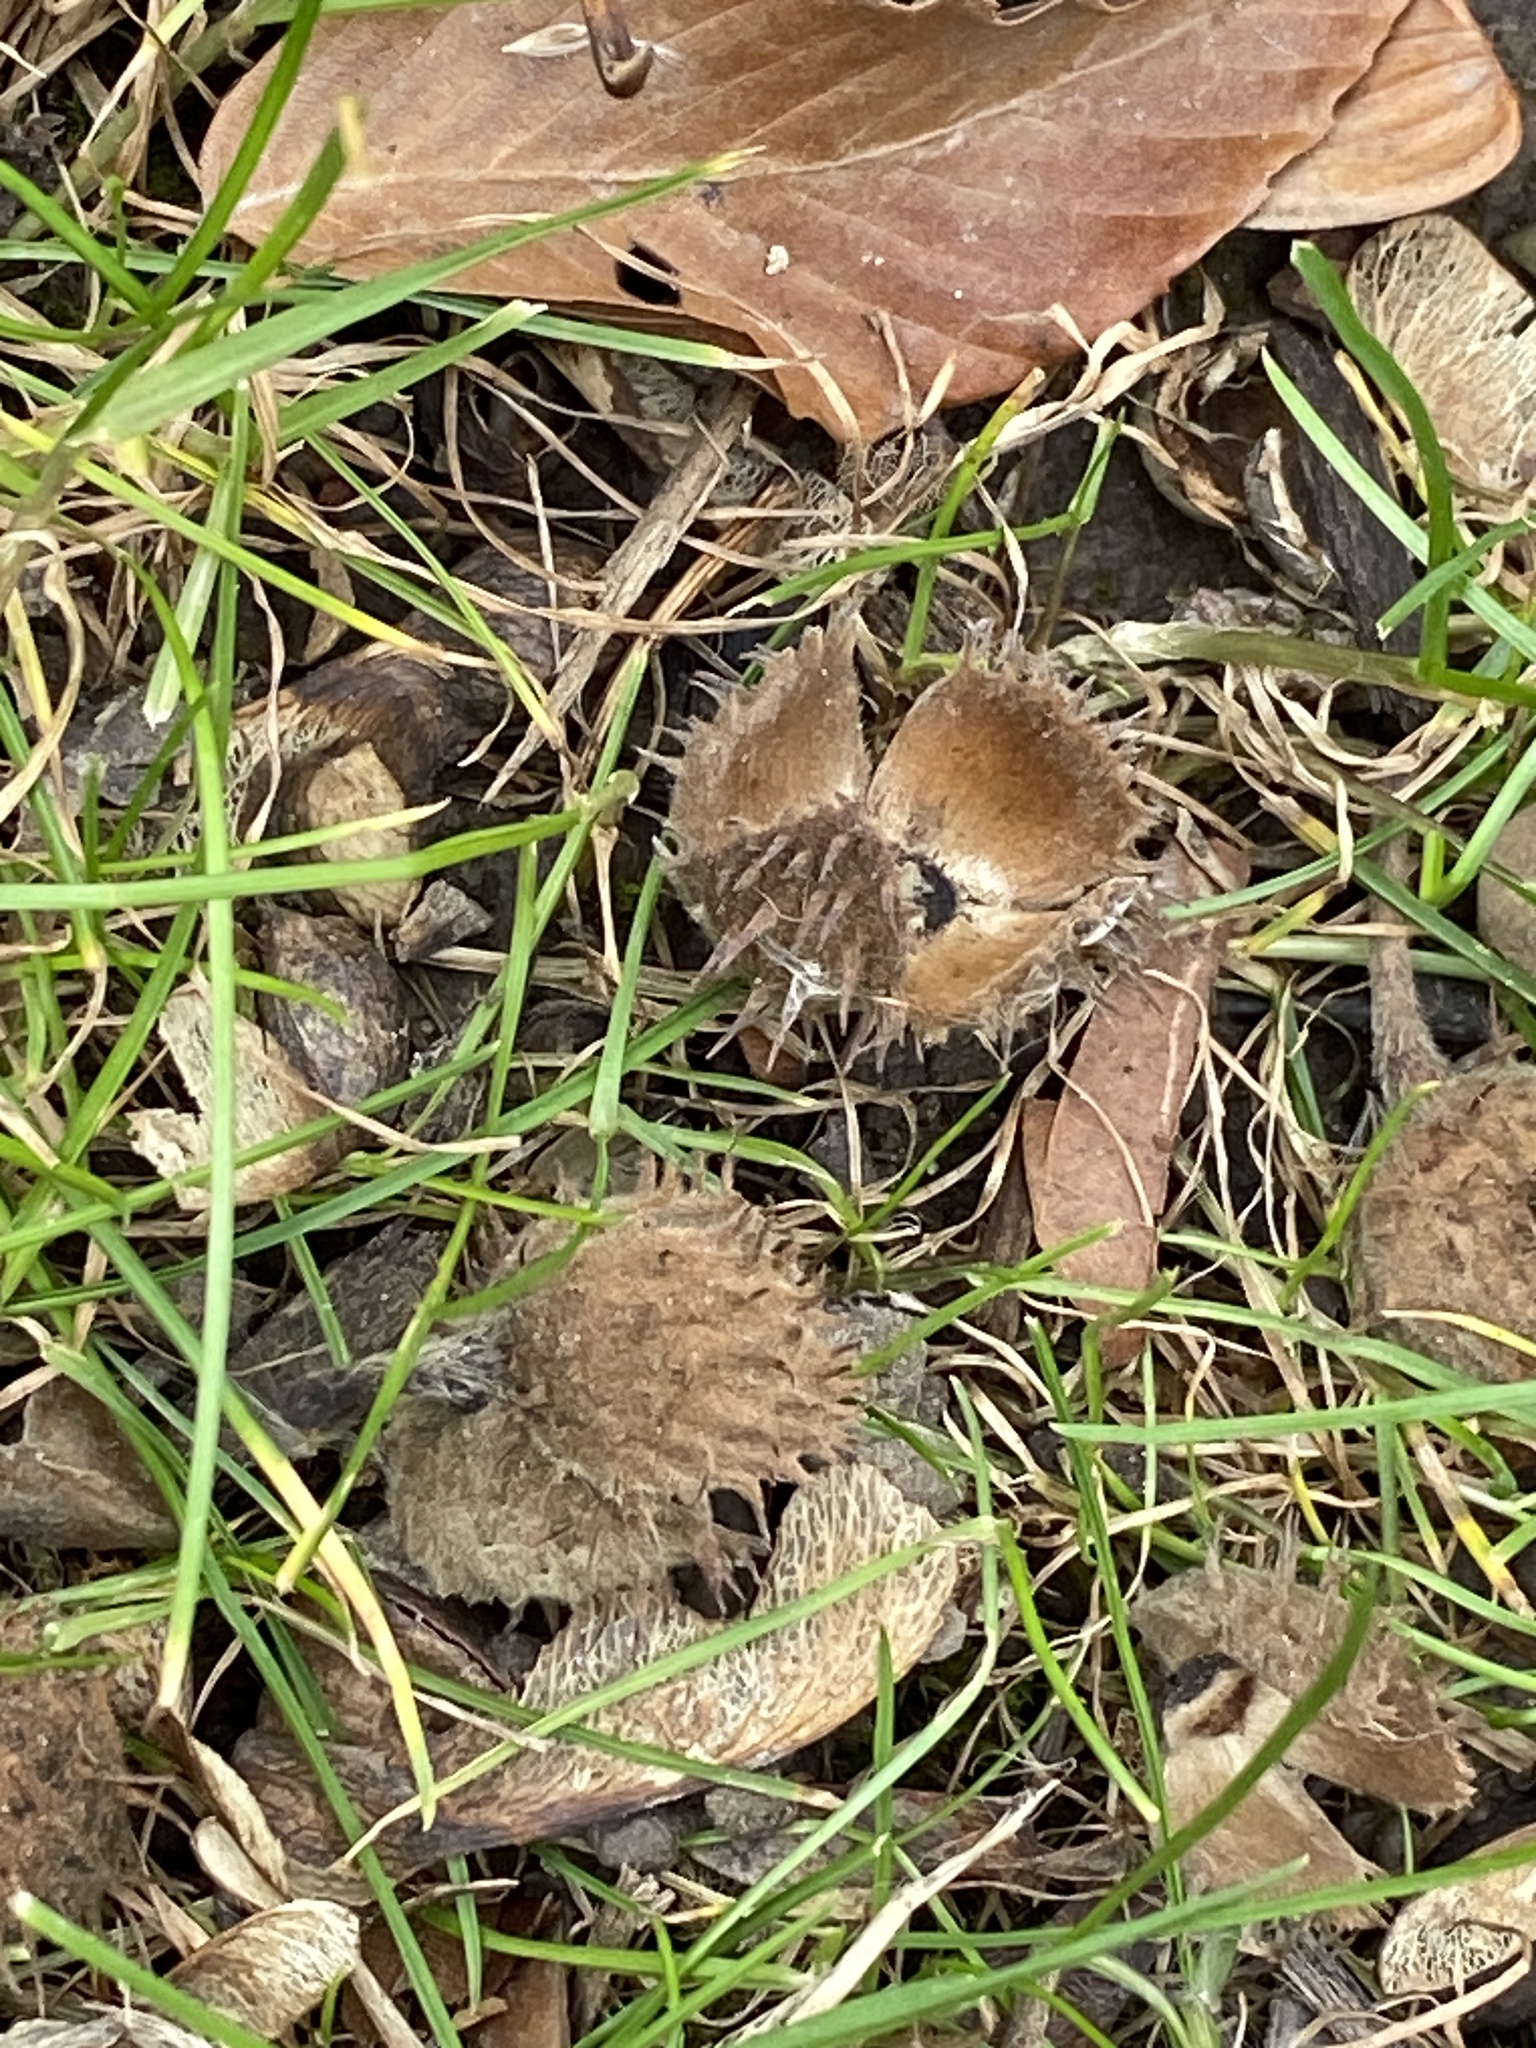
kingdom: Plantae
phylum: Tracheophyta
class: Magnoliopsida
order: Fagales
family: Fagaceae
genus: Fagus
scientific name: Fagus grandifolia
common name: American beech
